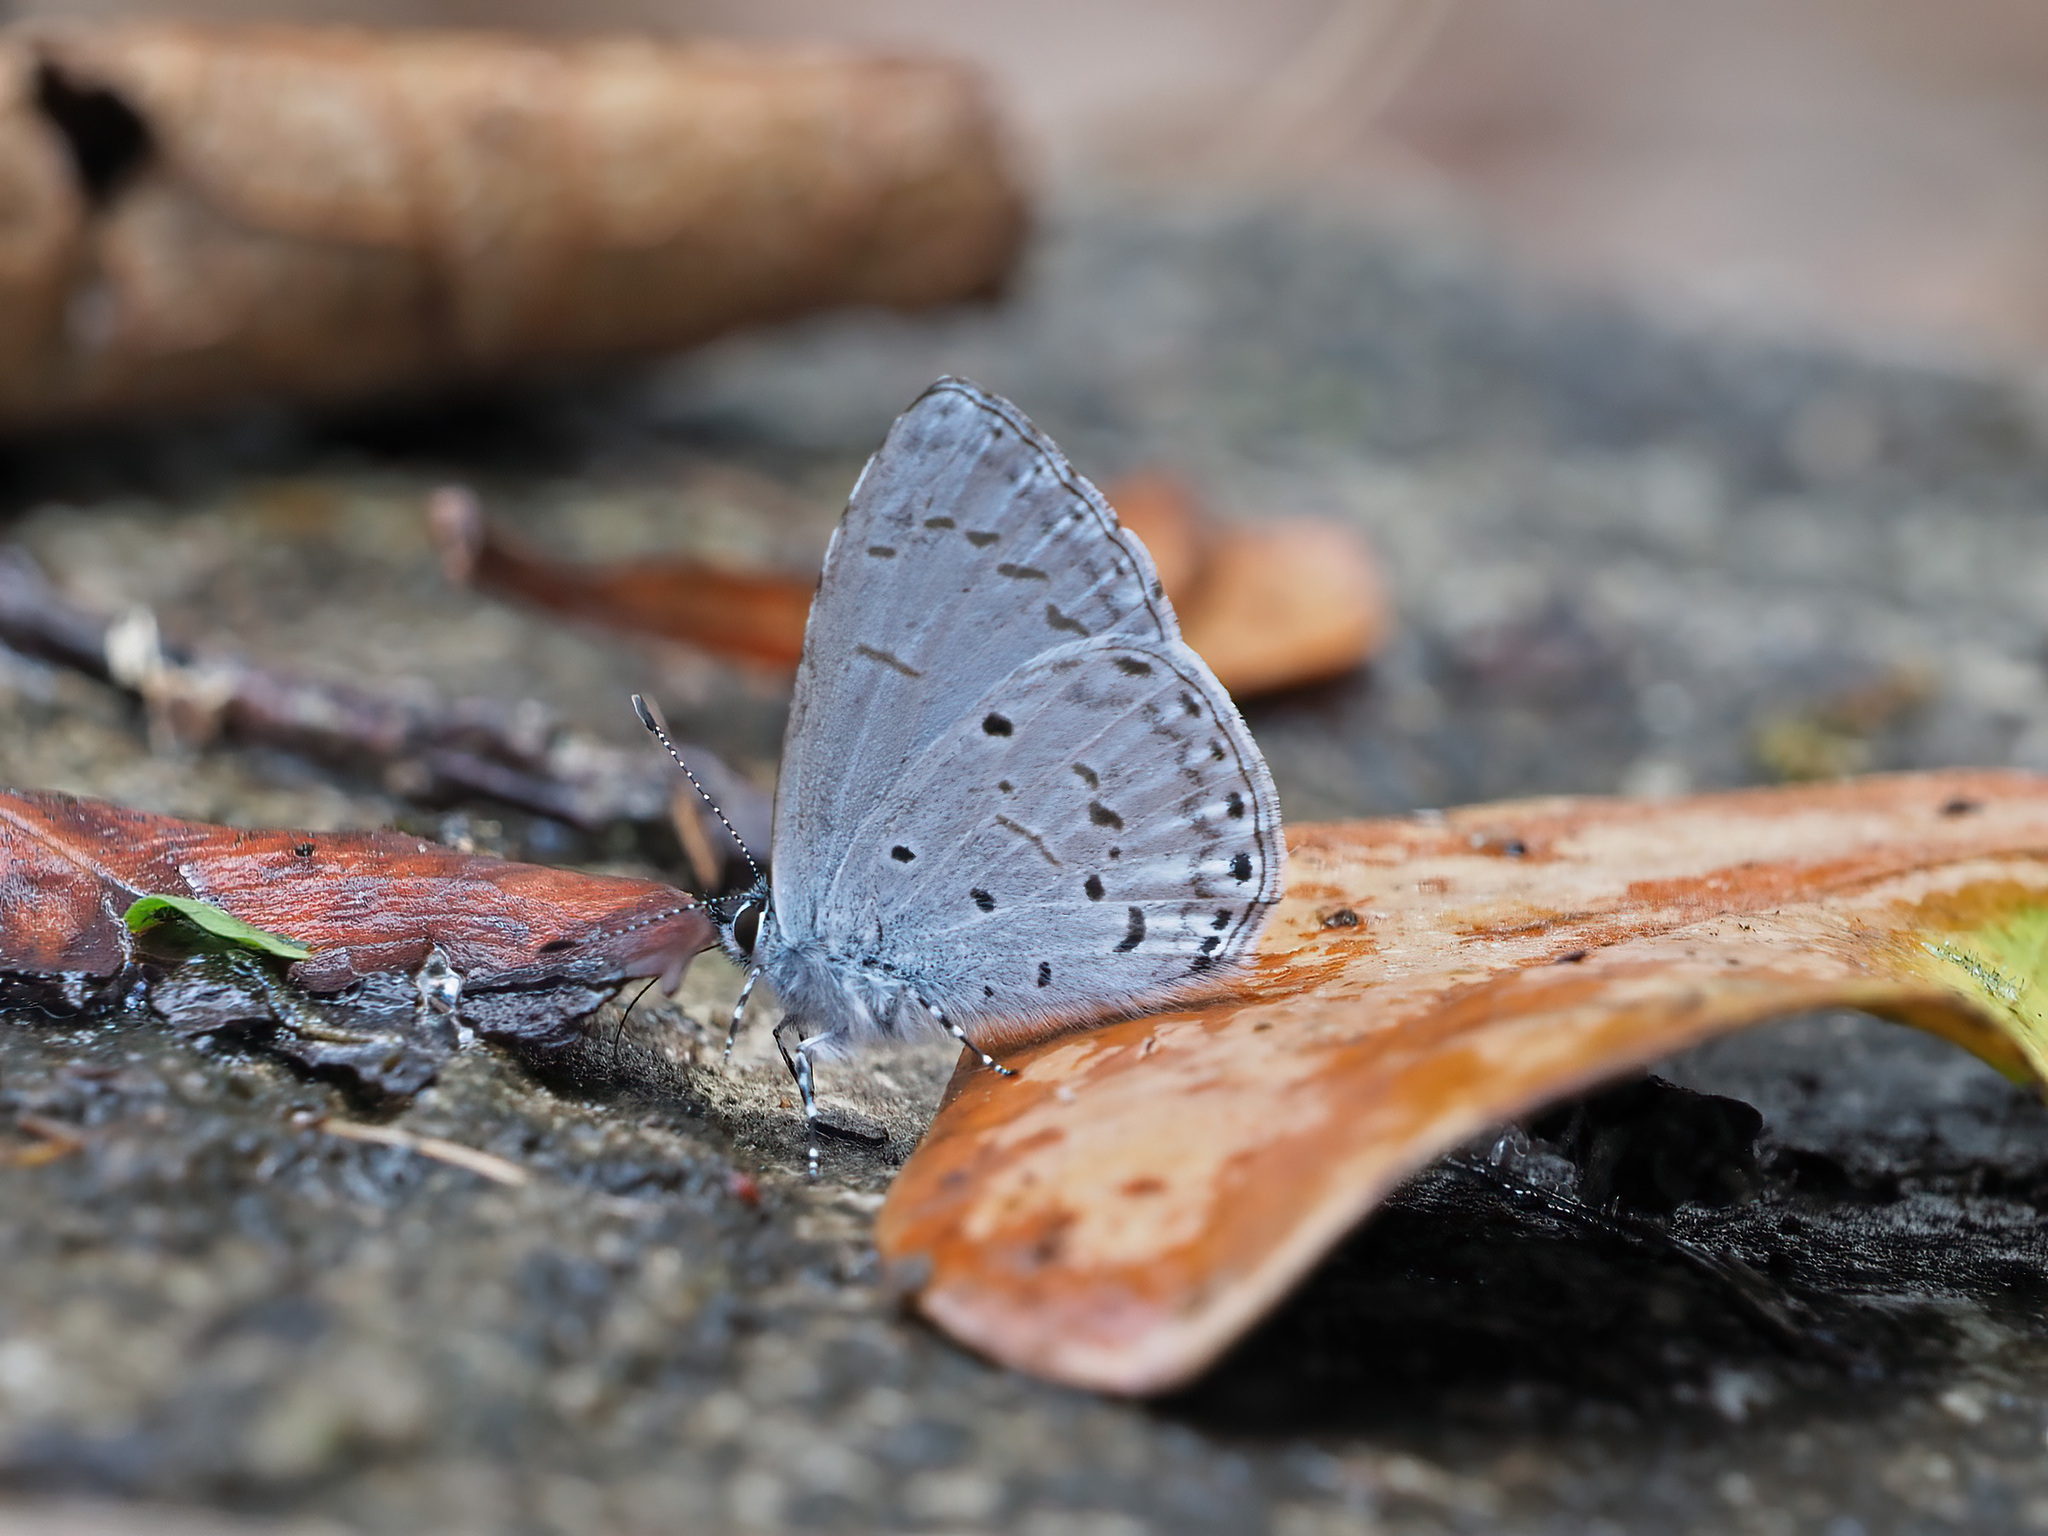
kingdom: Animalia
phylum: Arthropoda
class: Insecta
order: Lepidoptera
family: Lycaenidae
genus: Udara
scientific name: Udara
